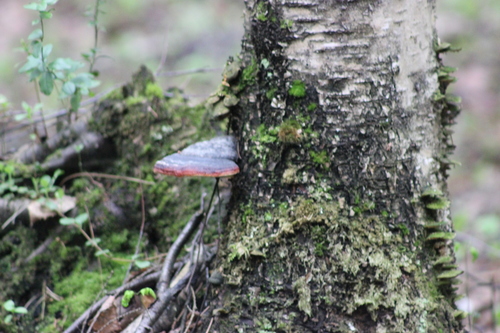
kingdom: Fungi
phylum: Basidiomycota
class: Agaricomycetes
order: Polyporales
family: Fomitopsidaceae
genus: Fomitopsis
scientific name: Fomitopsis pinicola
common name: Red-belted bracket
